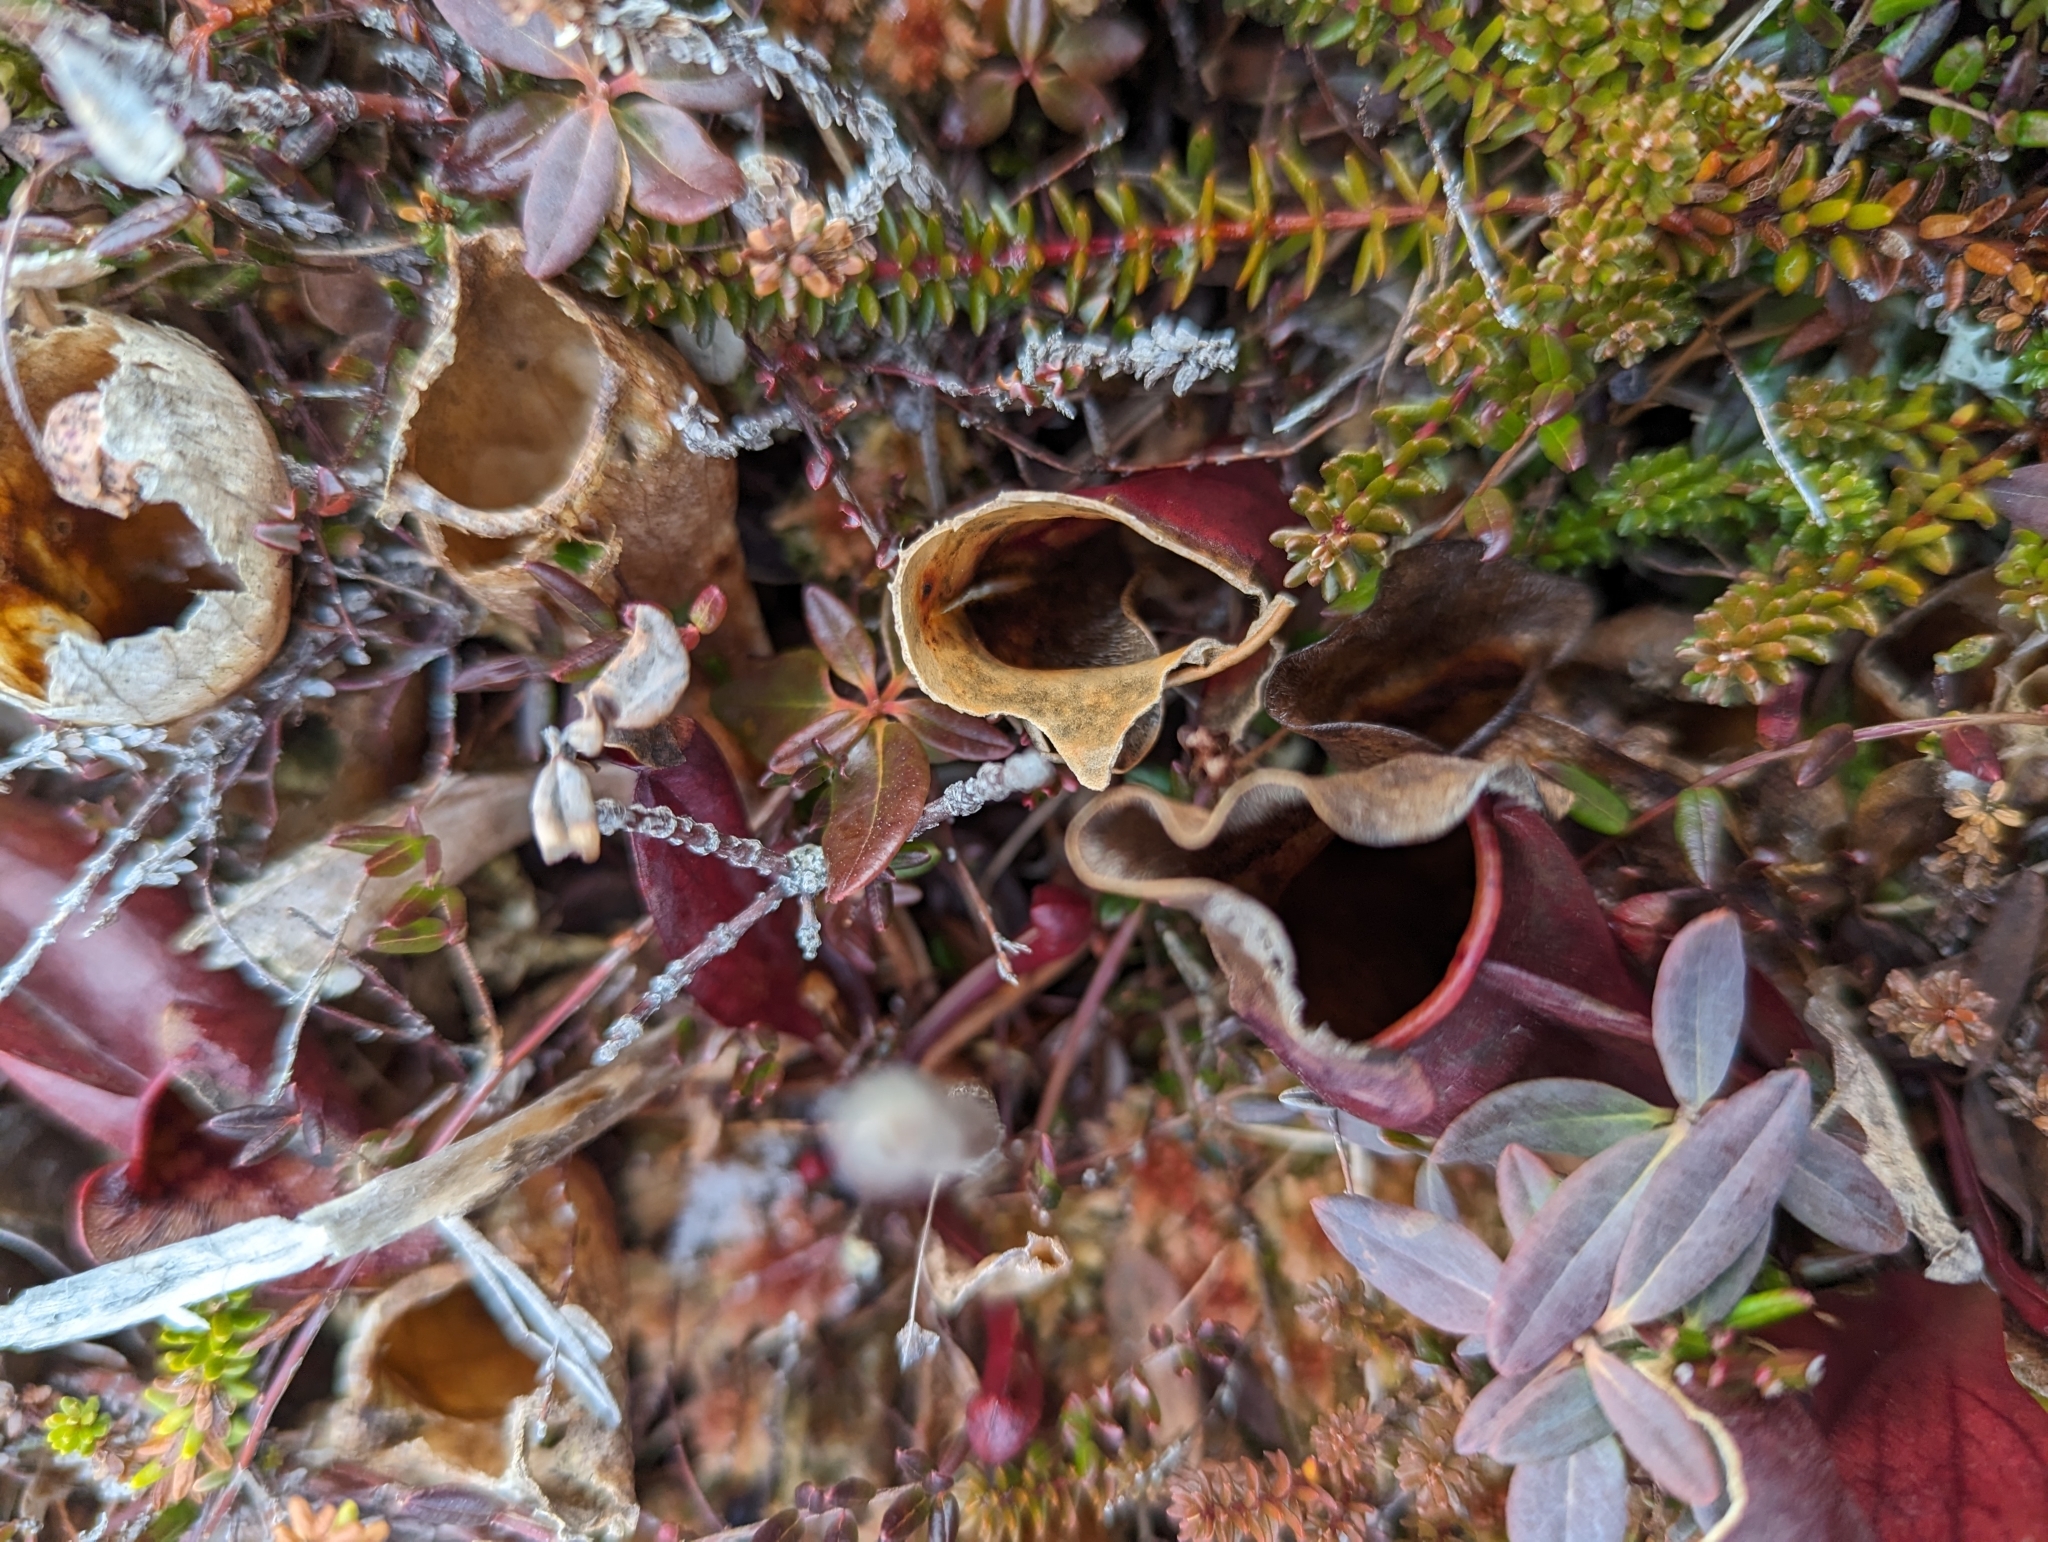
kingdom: Plantae
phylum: Tracheophyta
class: Magnoliopsida
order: Ericales
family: Sarraceniaceae
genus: Sarracenia
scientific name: Sarracenia purpurea
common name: Pitcherplant
